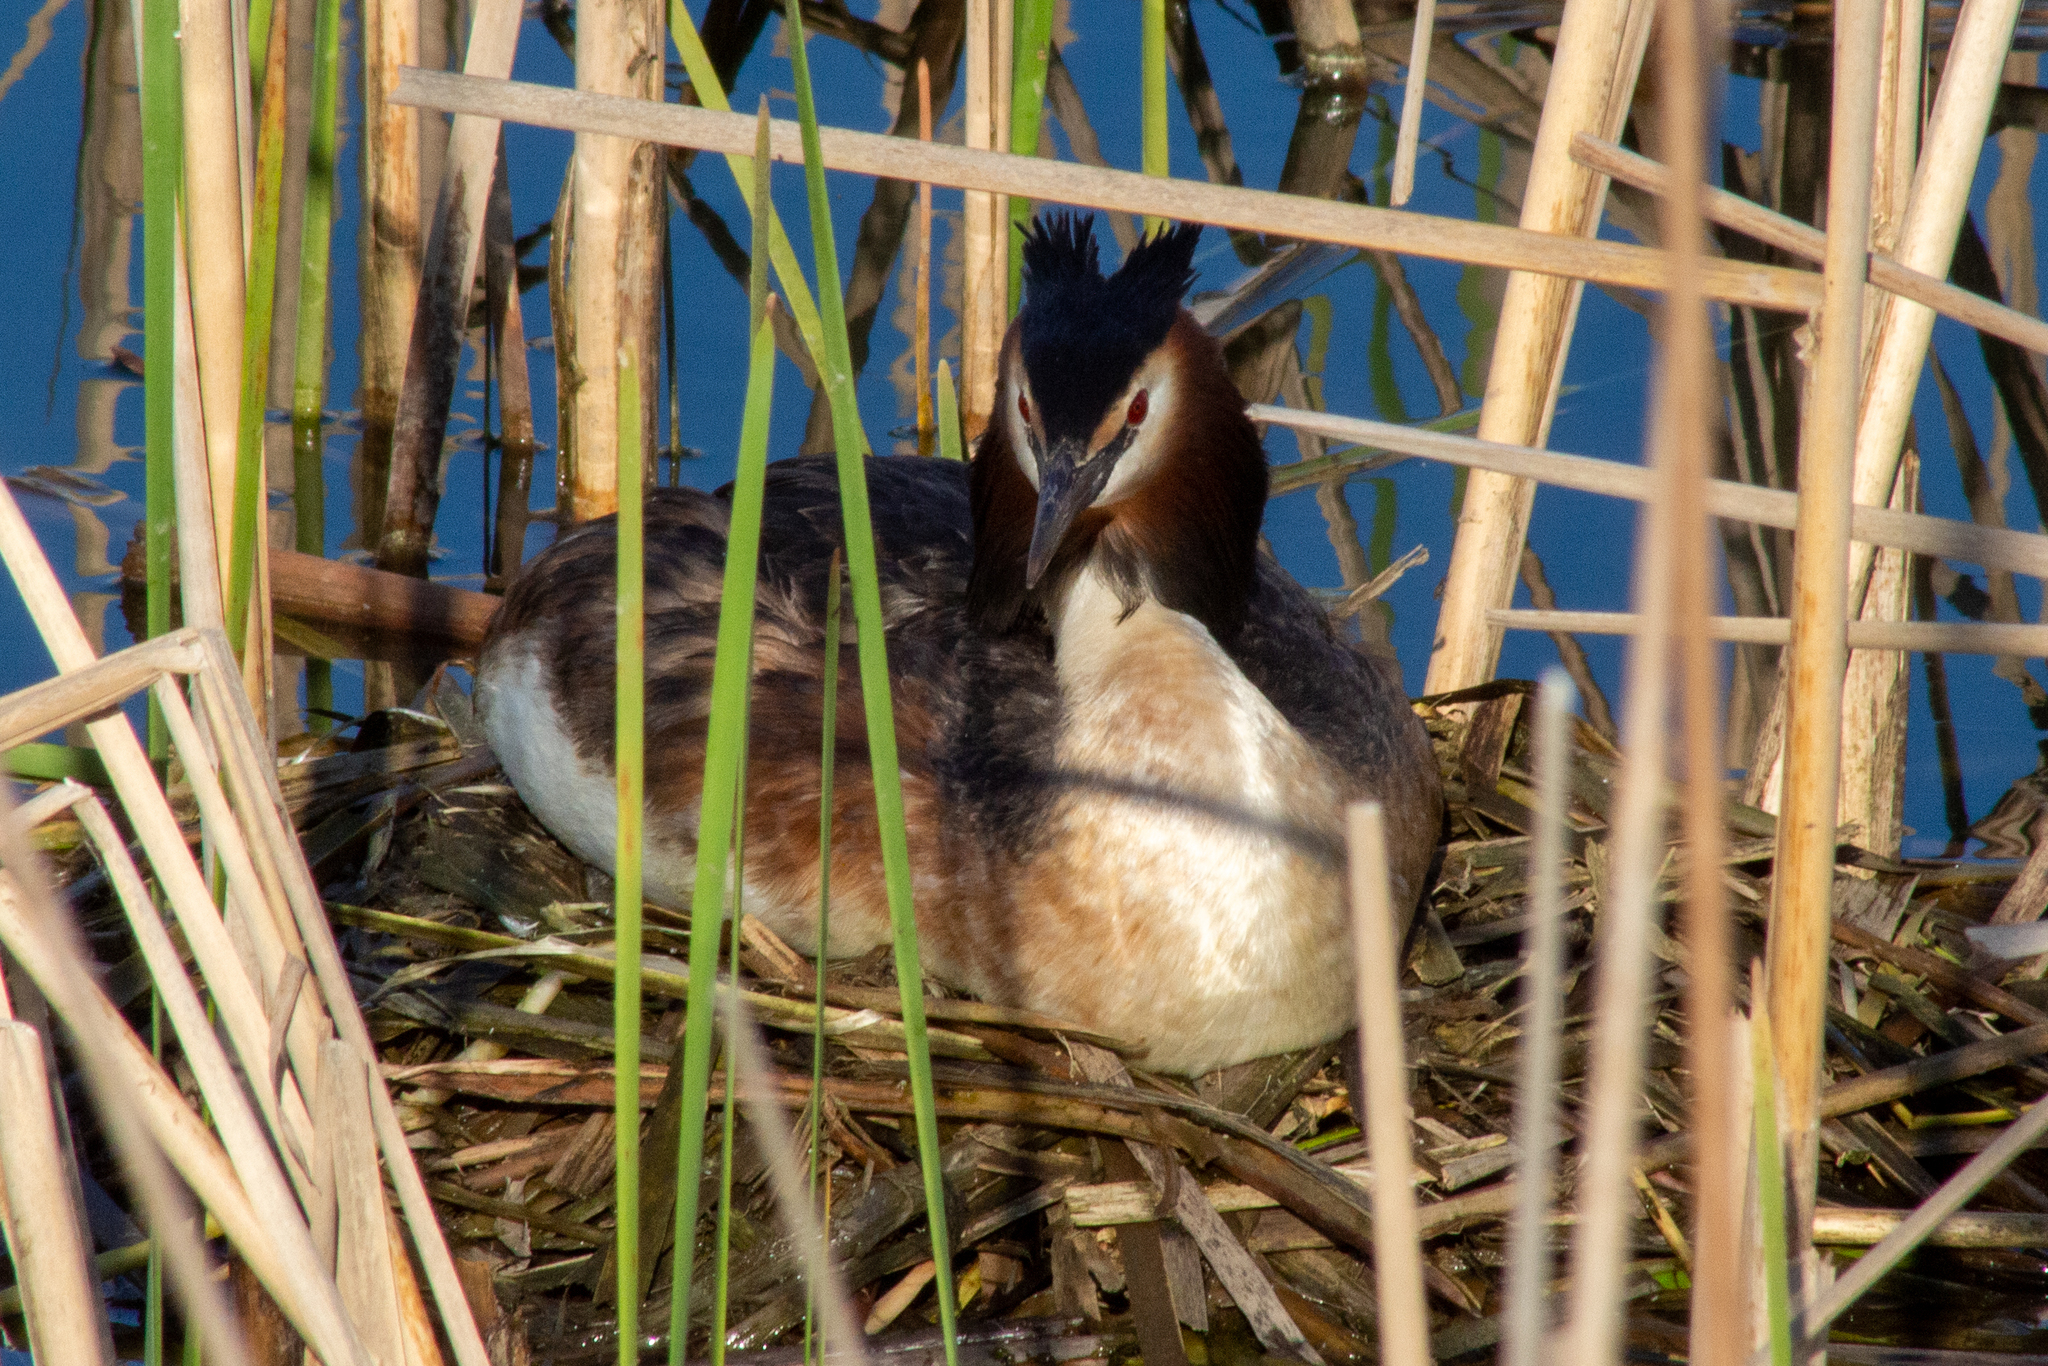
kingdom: Animalia
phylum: Chordata
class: Aves
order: Podicipediformes
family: Podicipedidae
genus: Podiceps
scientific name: Podiceps cristatus
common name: Great crested grebe
